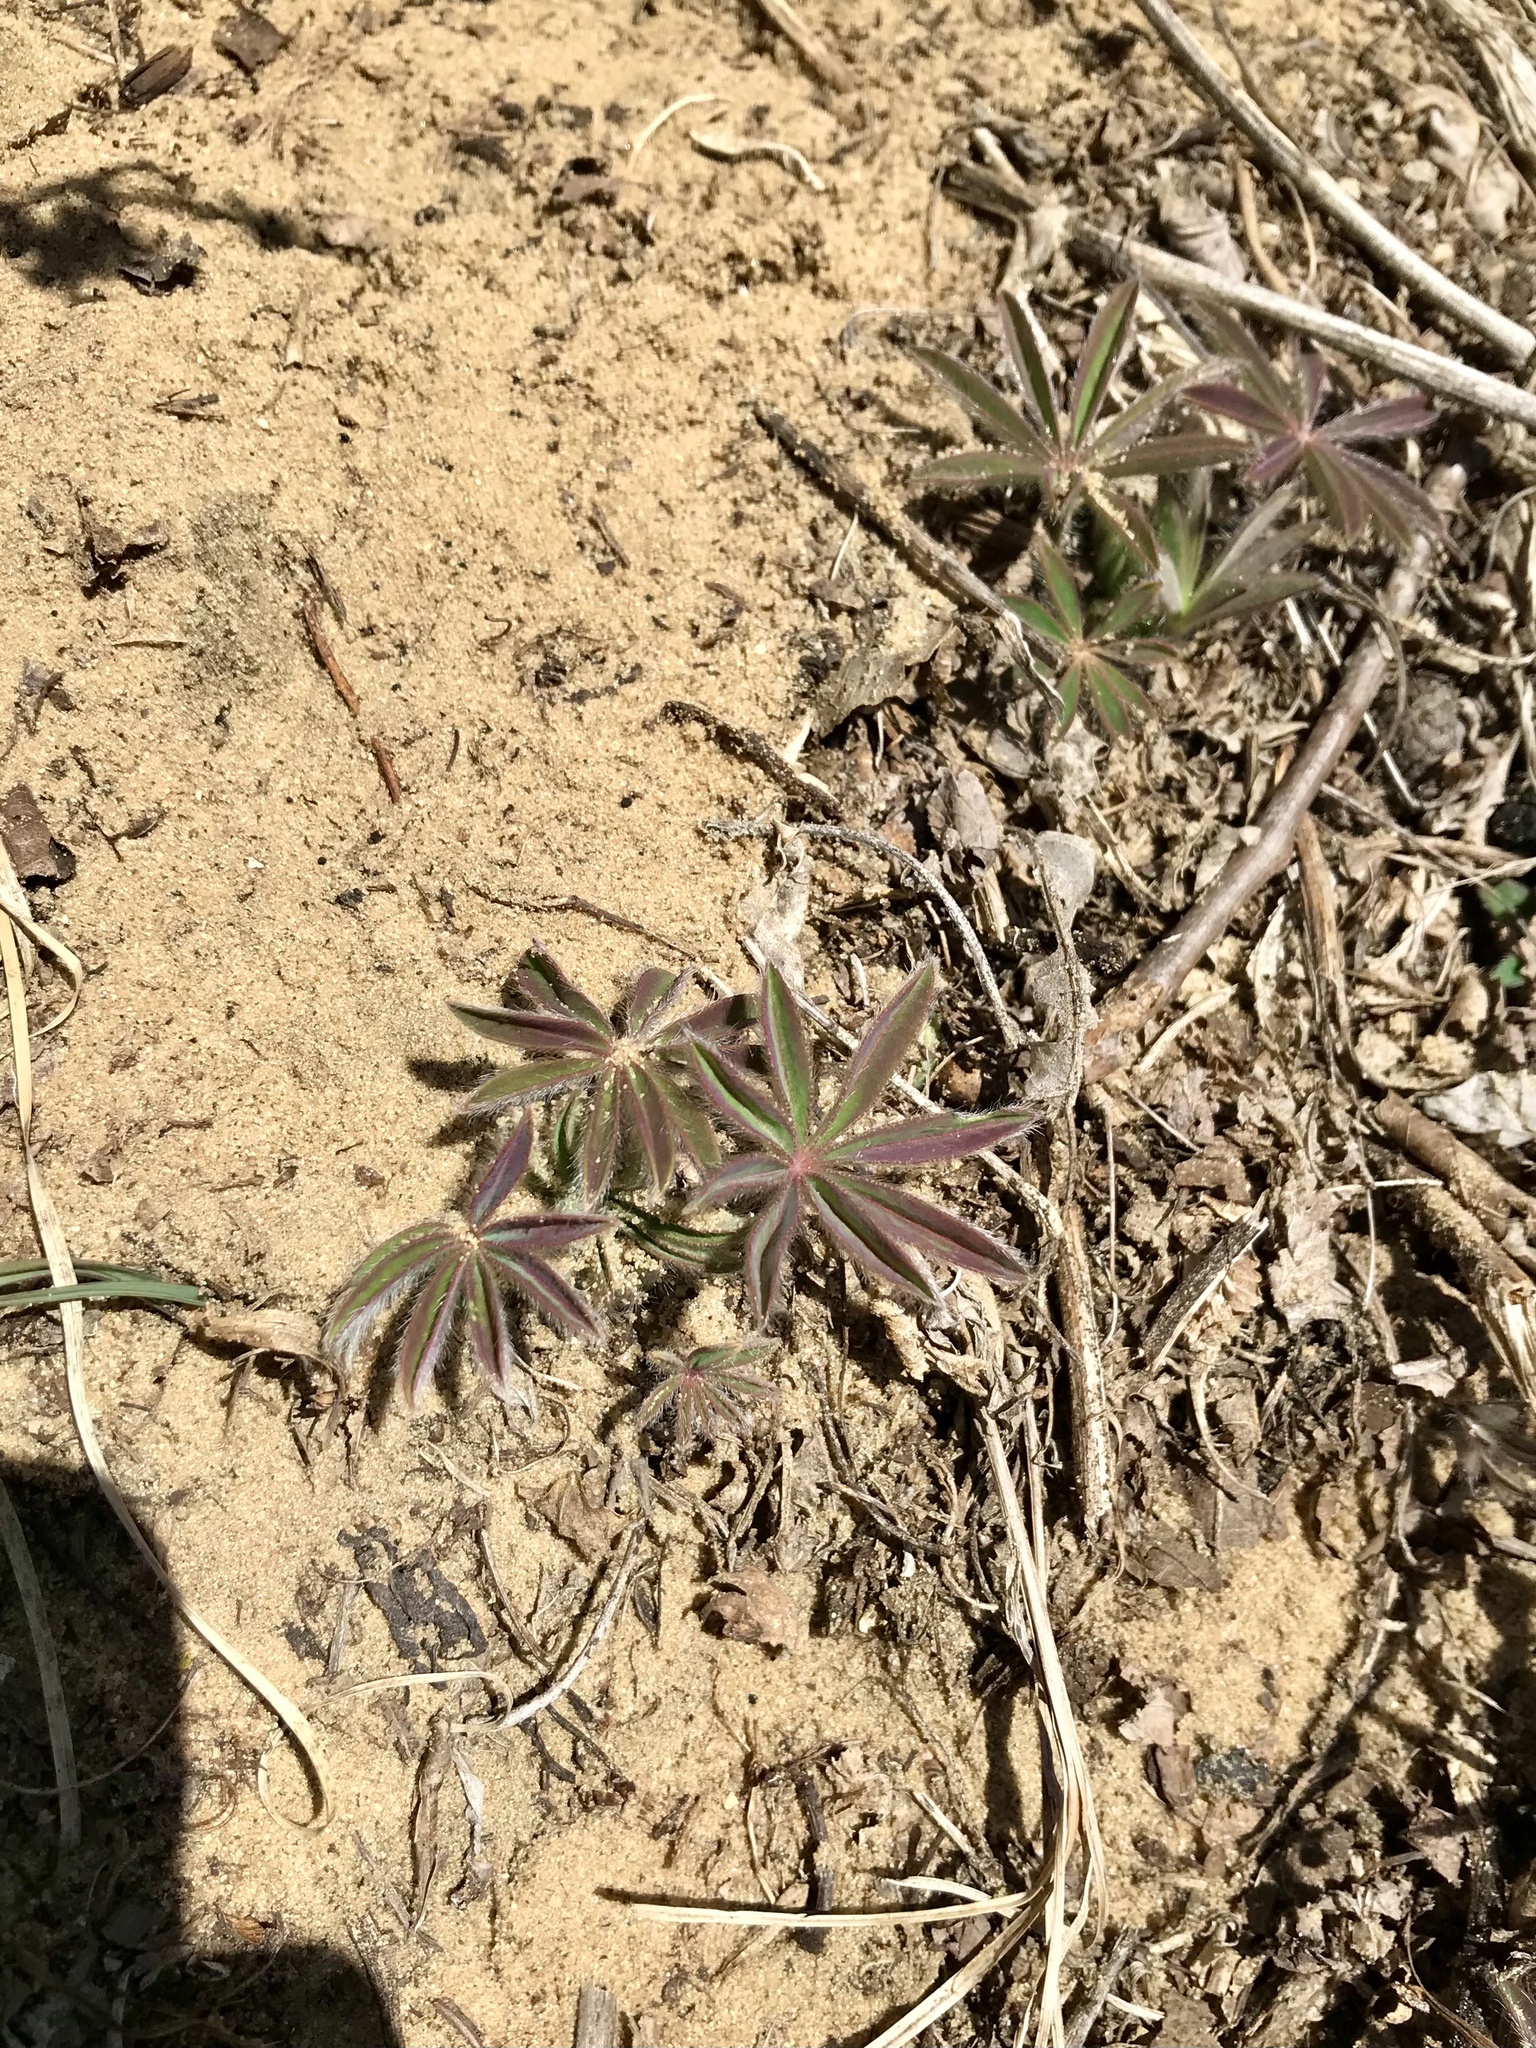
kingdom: Plantae
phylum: Tracheophyta
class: Magnoliopsida
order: Fabales
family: Fabaceae
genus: Lupinus
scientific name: Lupinus perennis
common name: Sundial lupine
